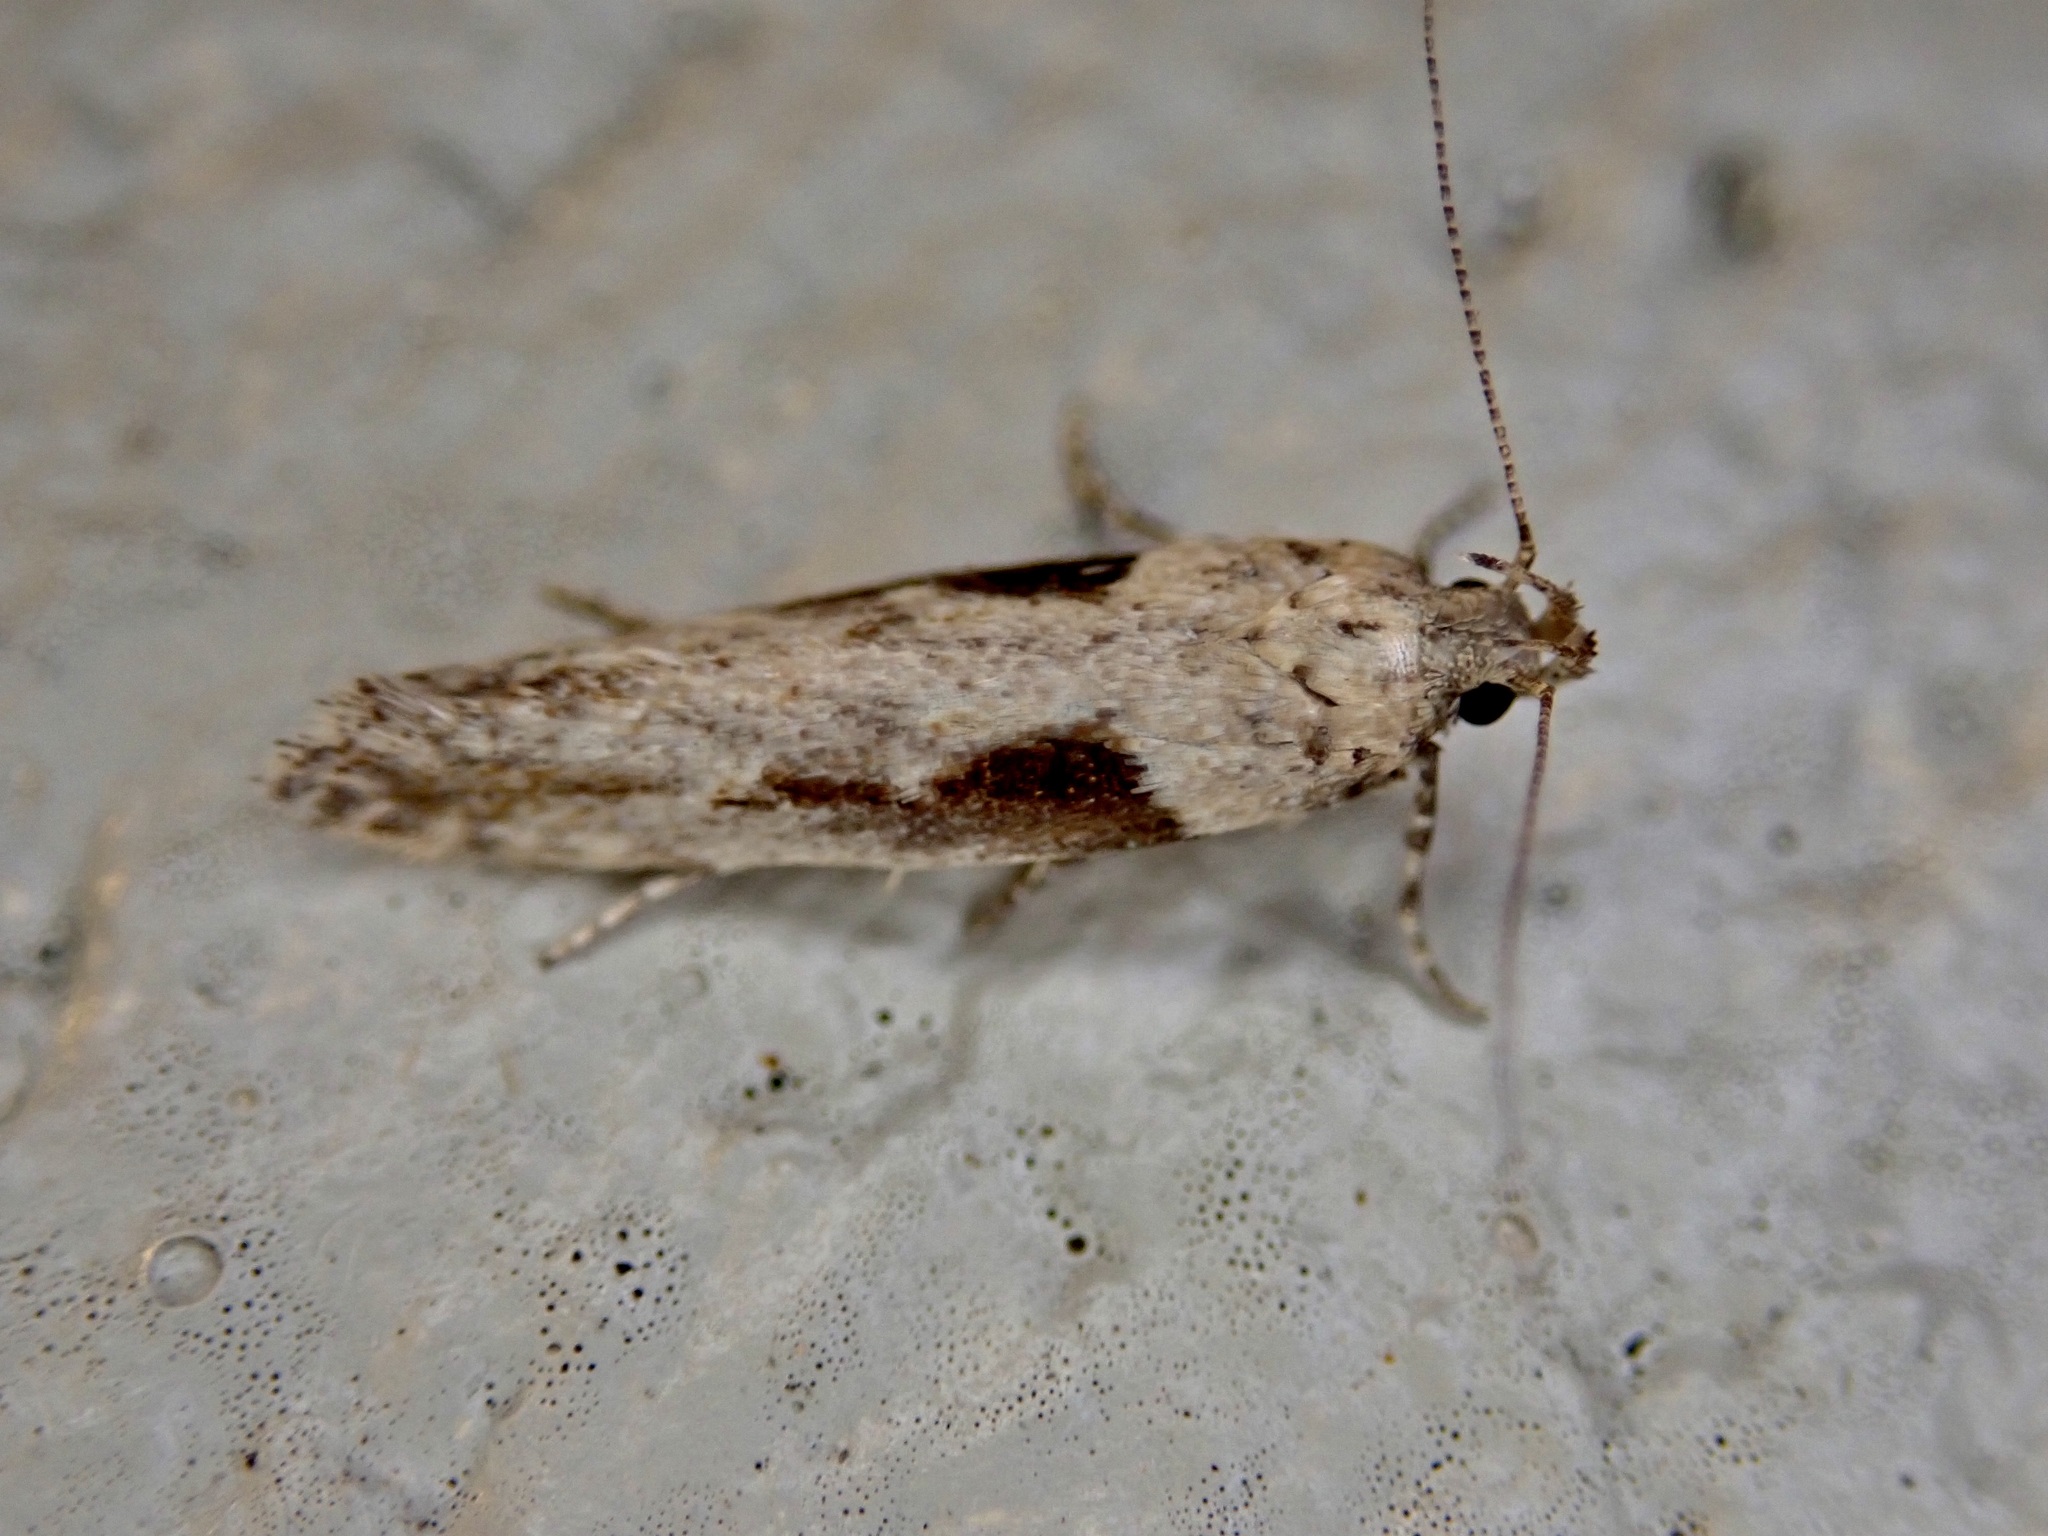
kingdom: Animalia
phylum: Arthropoda
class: Insecta
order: Lepidoptera
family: Gelechiidae
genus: Symmetrischema
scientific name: Symmetrischema tangolias
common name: Moth
